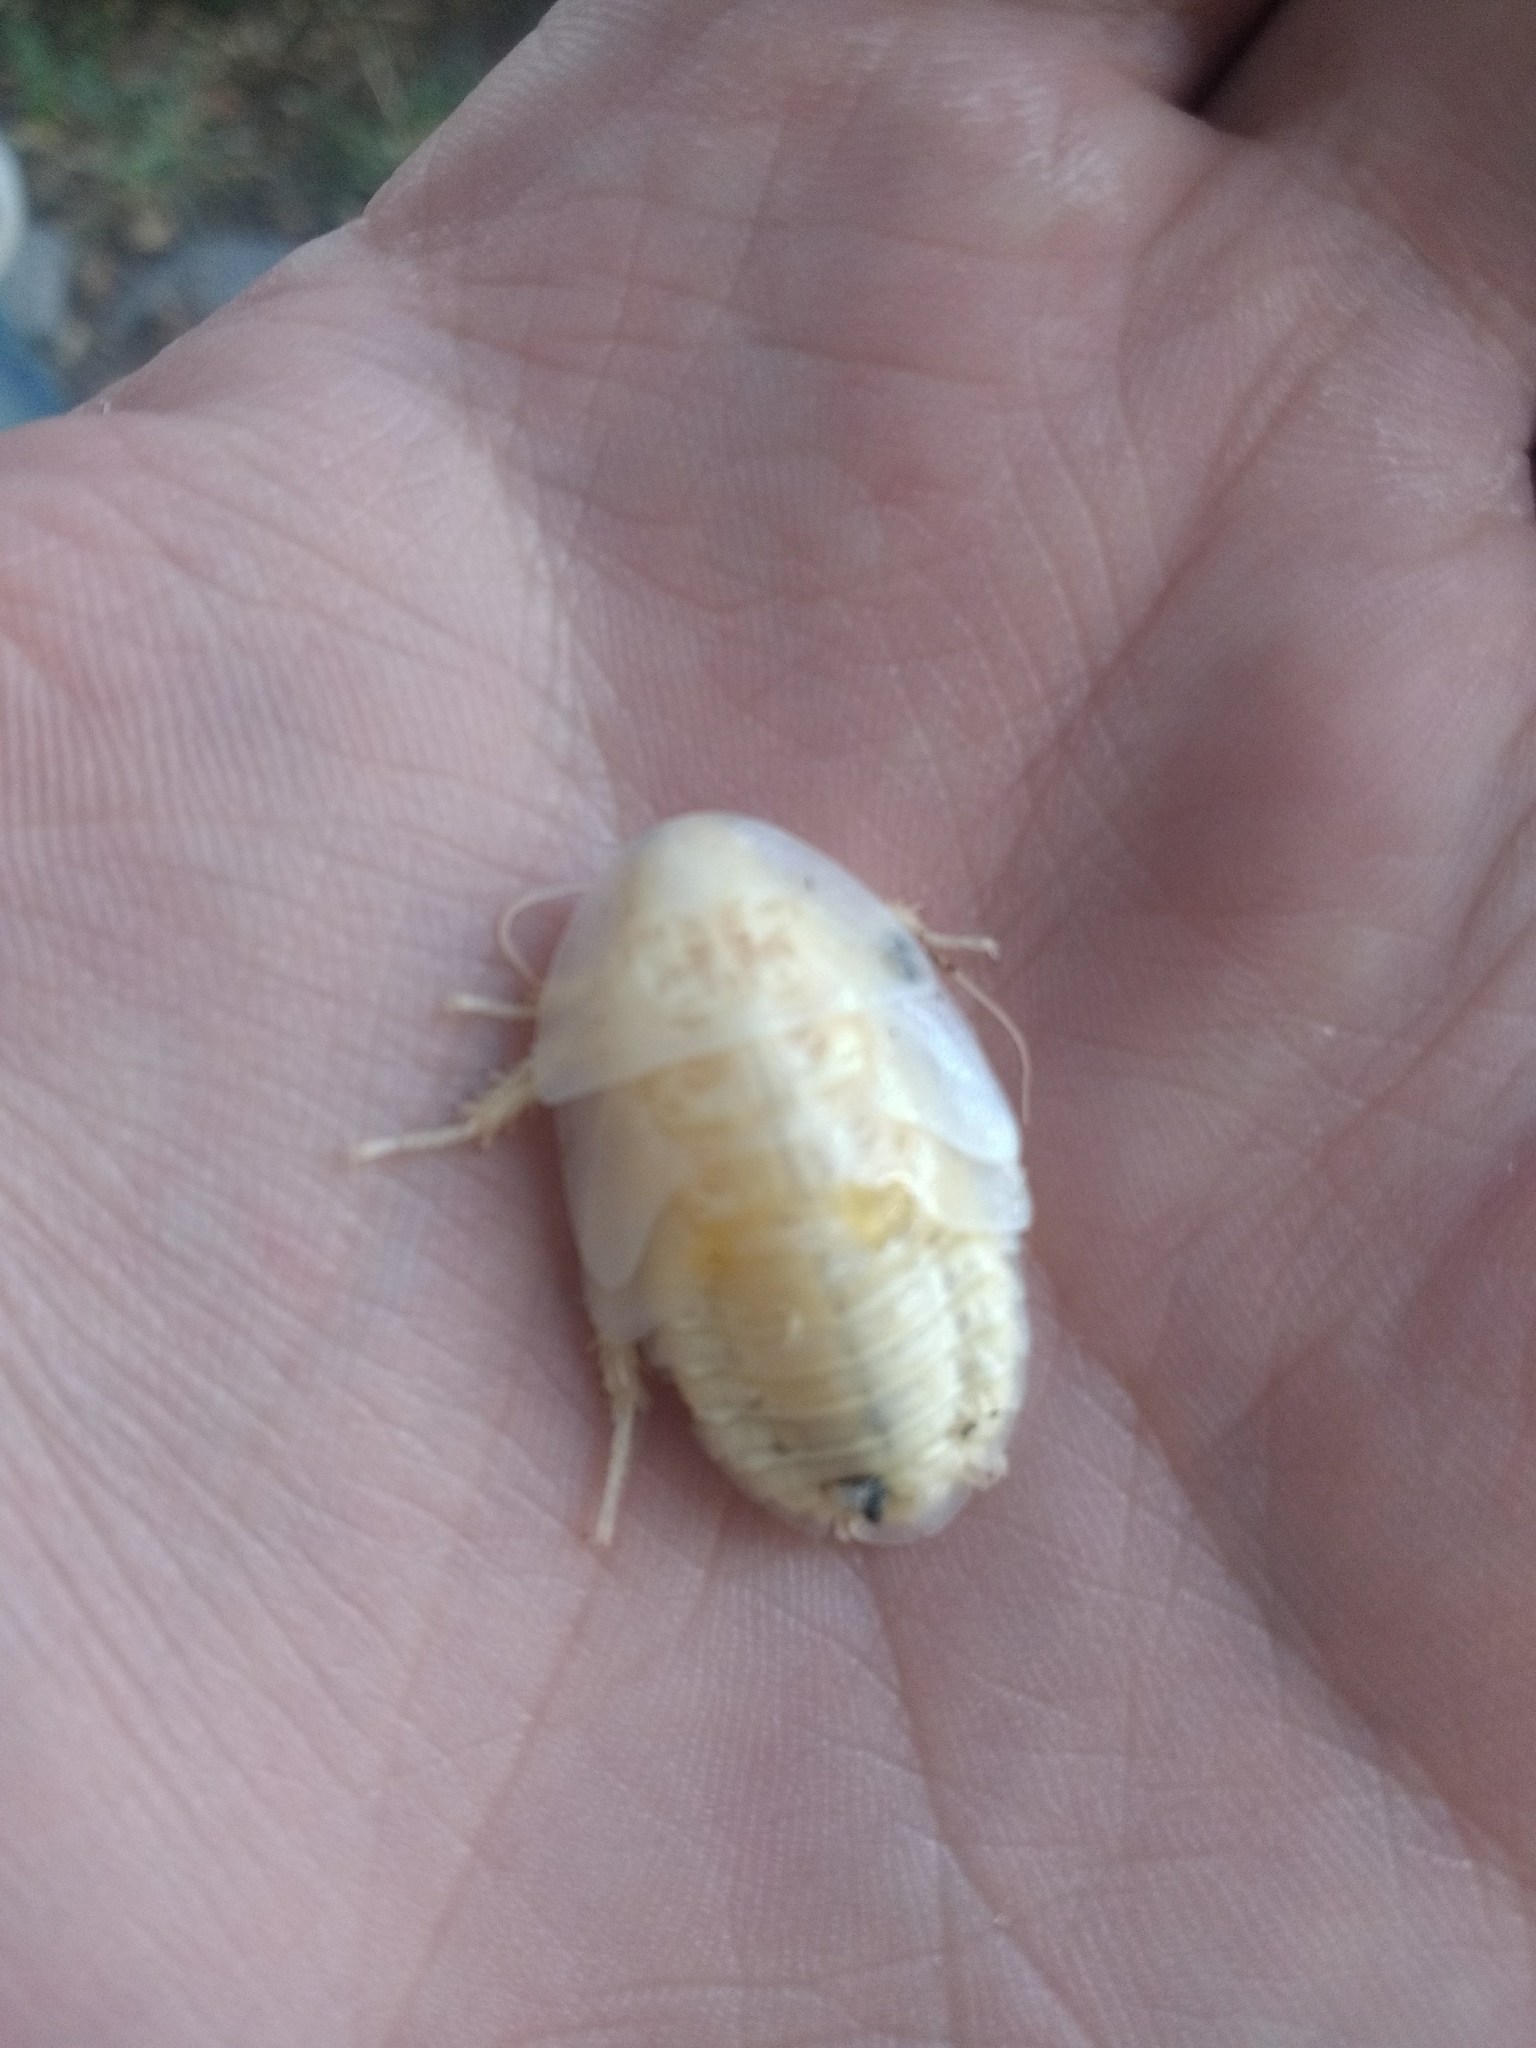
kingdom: Animalia
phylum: Arthropoda
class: Insecta
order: Blattodea
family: Blaberidae
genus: Blaptica
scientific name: Blaptica dubia
